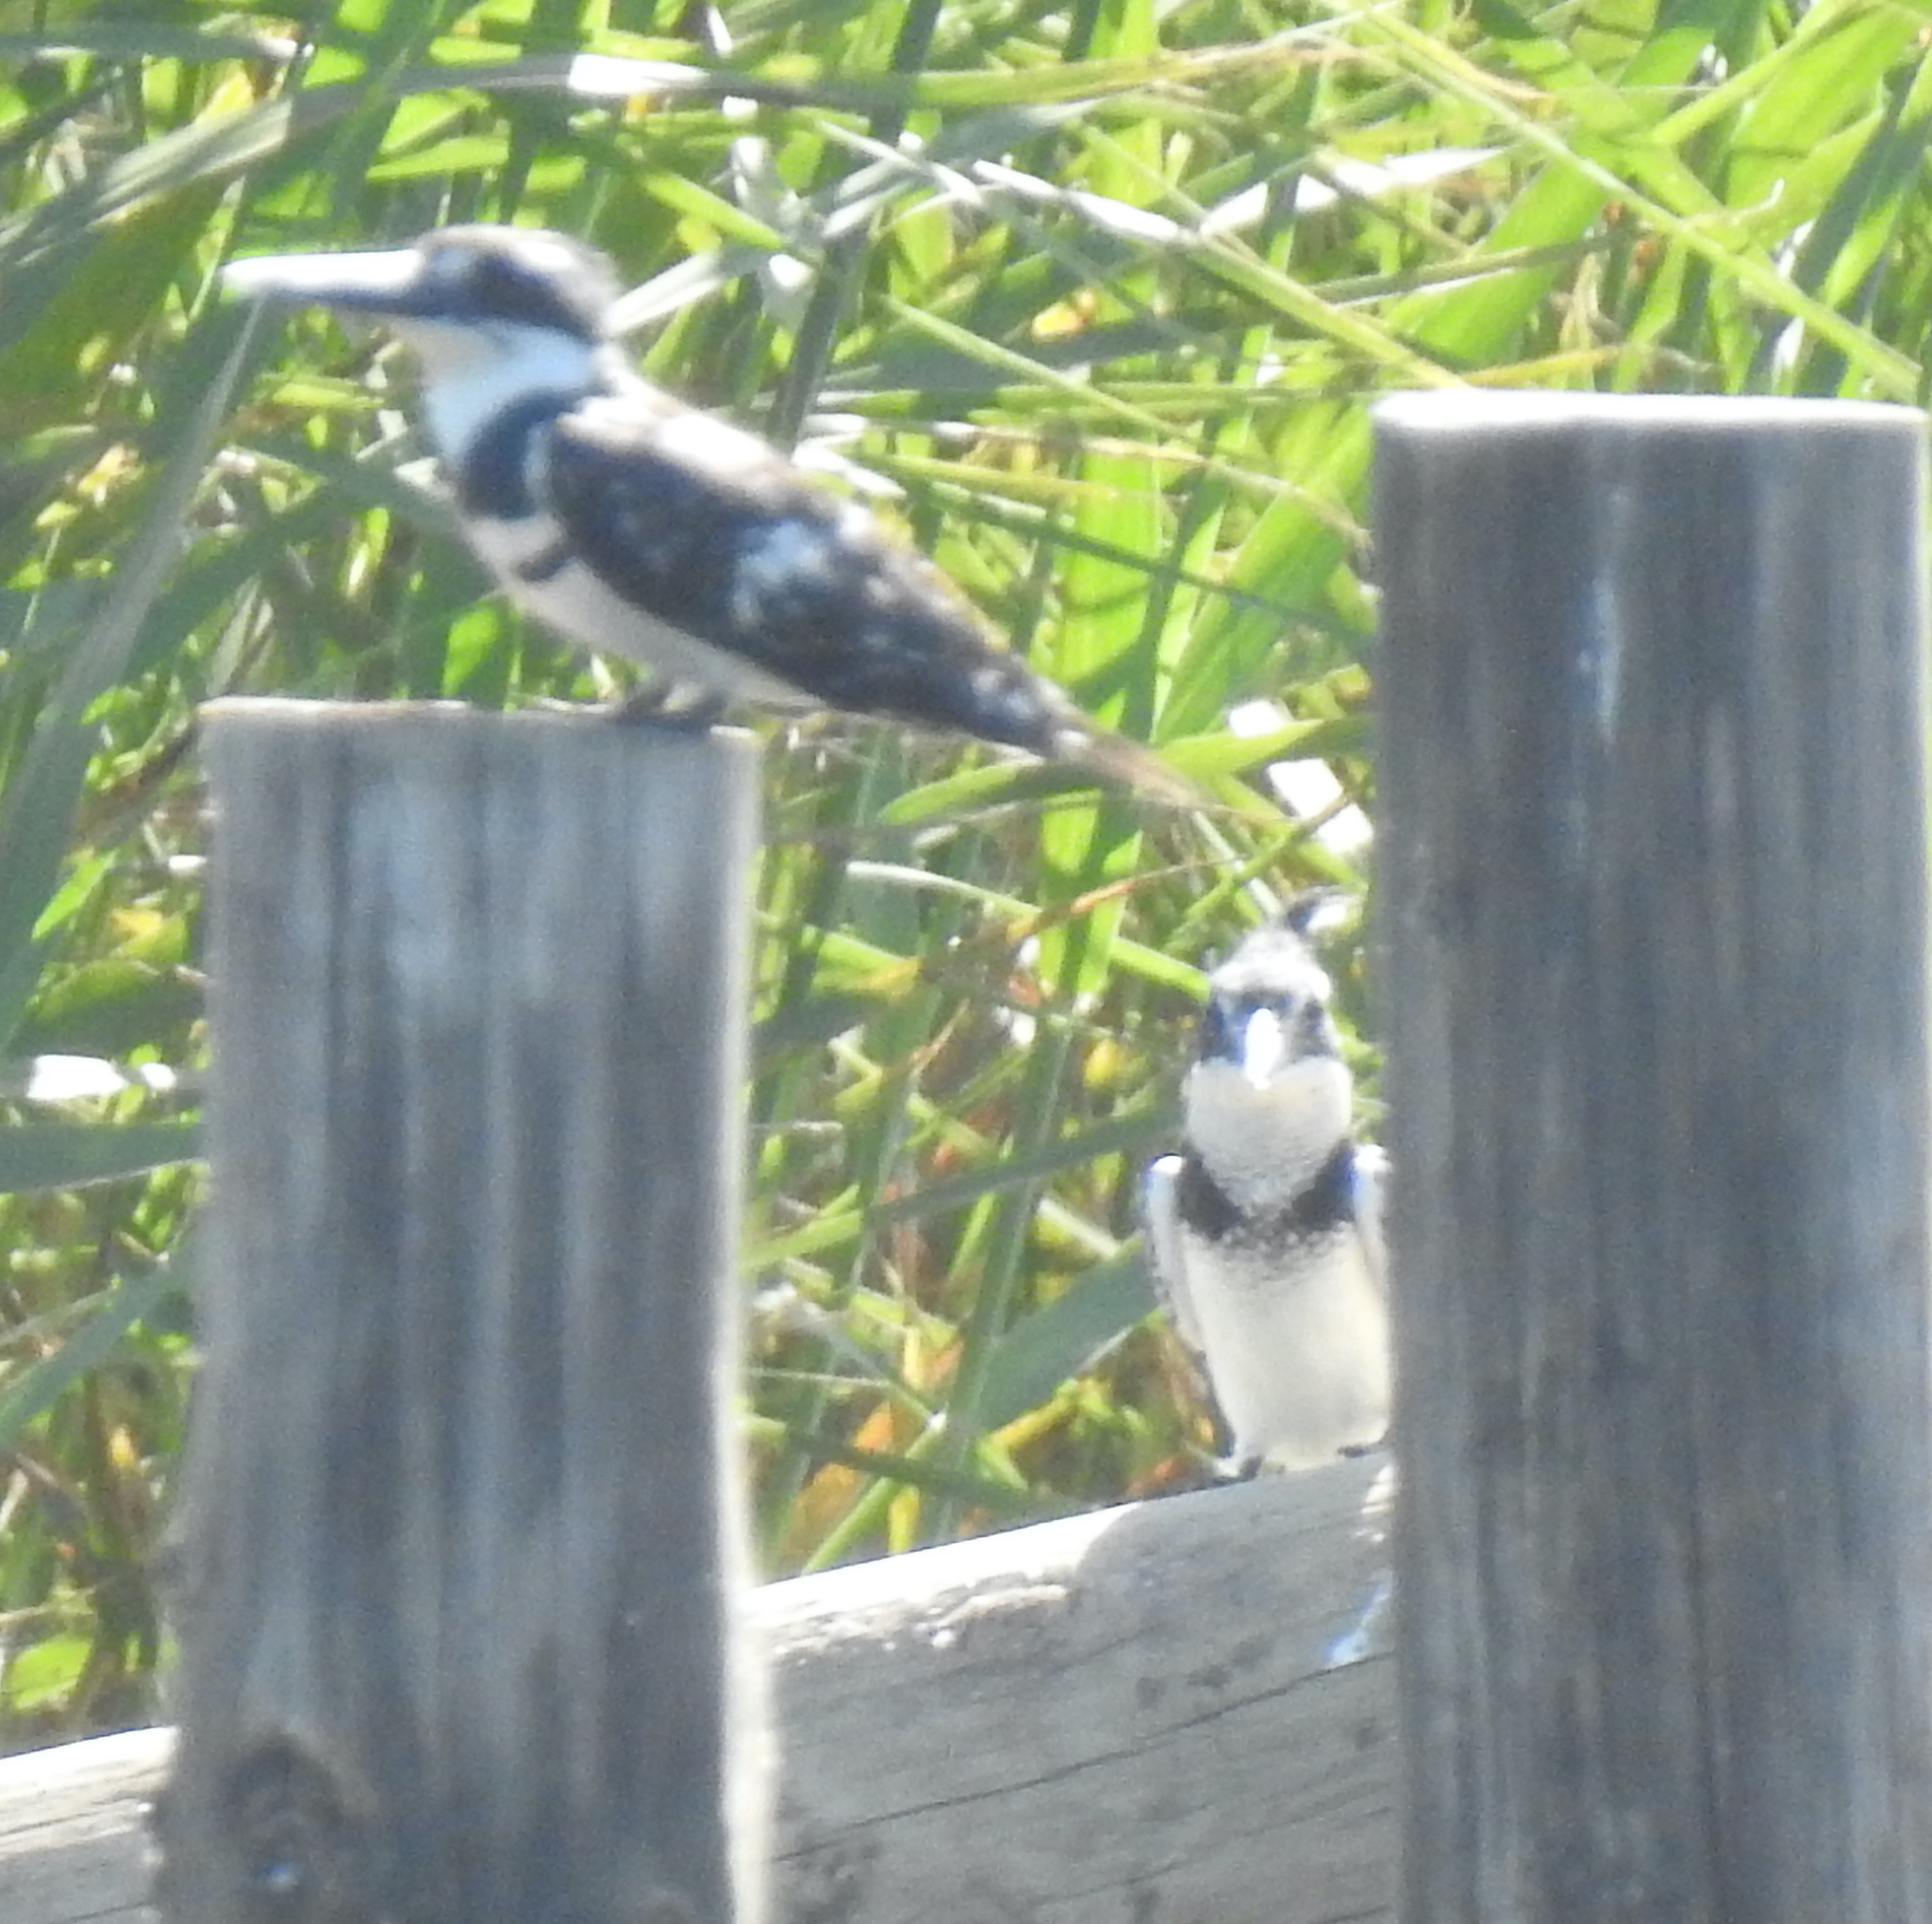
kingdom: Animalia
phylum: Chordata
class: Aves
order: Coraciiformes
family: Alcedinidae
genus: Ceryle
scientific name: Ceryle rudis
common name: Pied kingfisher
